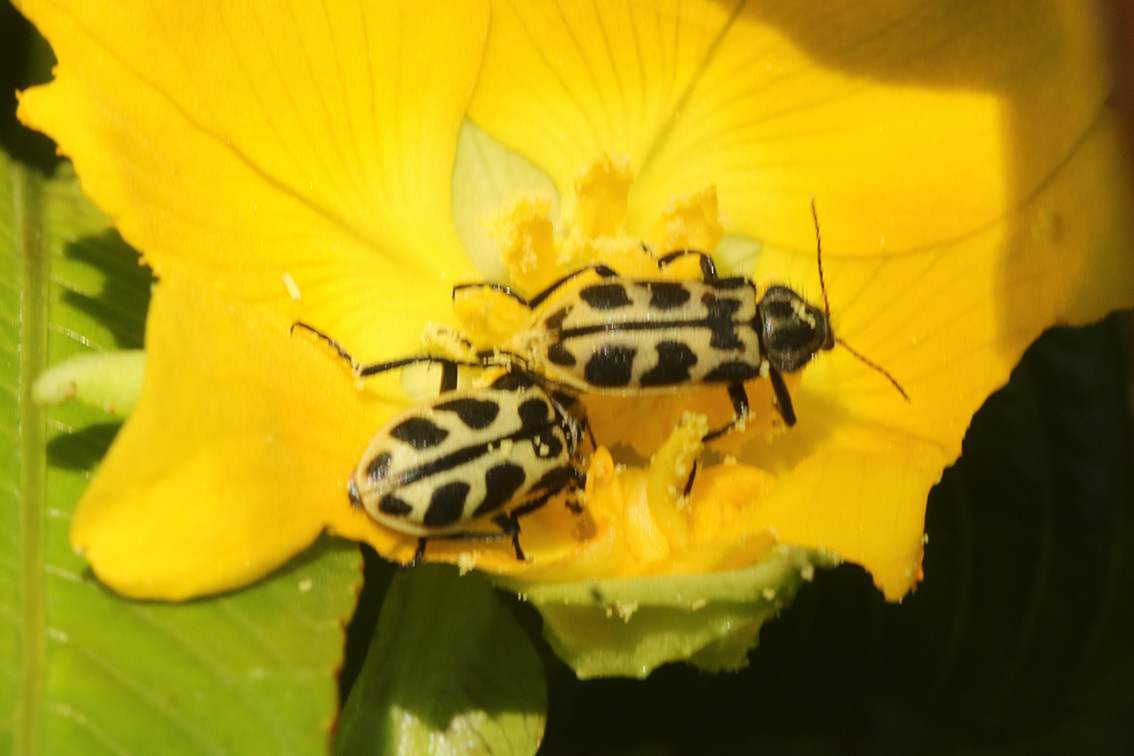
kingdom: Animalia
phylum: Arthropoda
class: Insecta
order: Coleoptera
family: Melyridae
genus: Astylus
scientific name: Astylus atromaculatus
